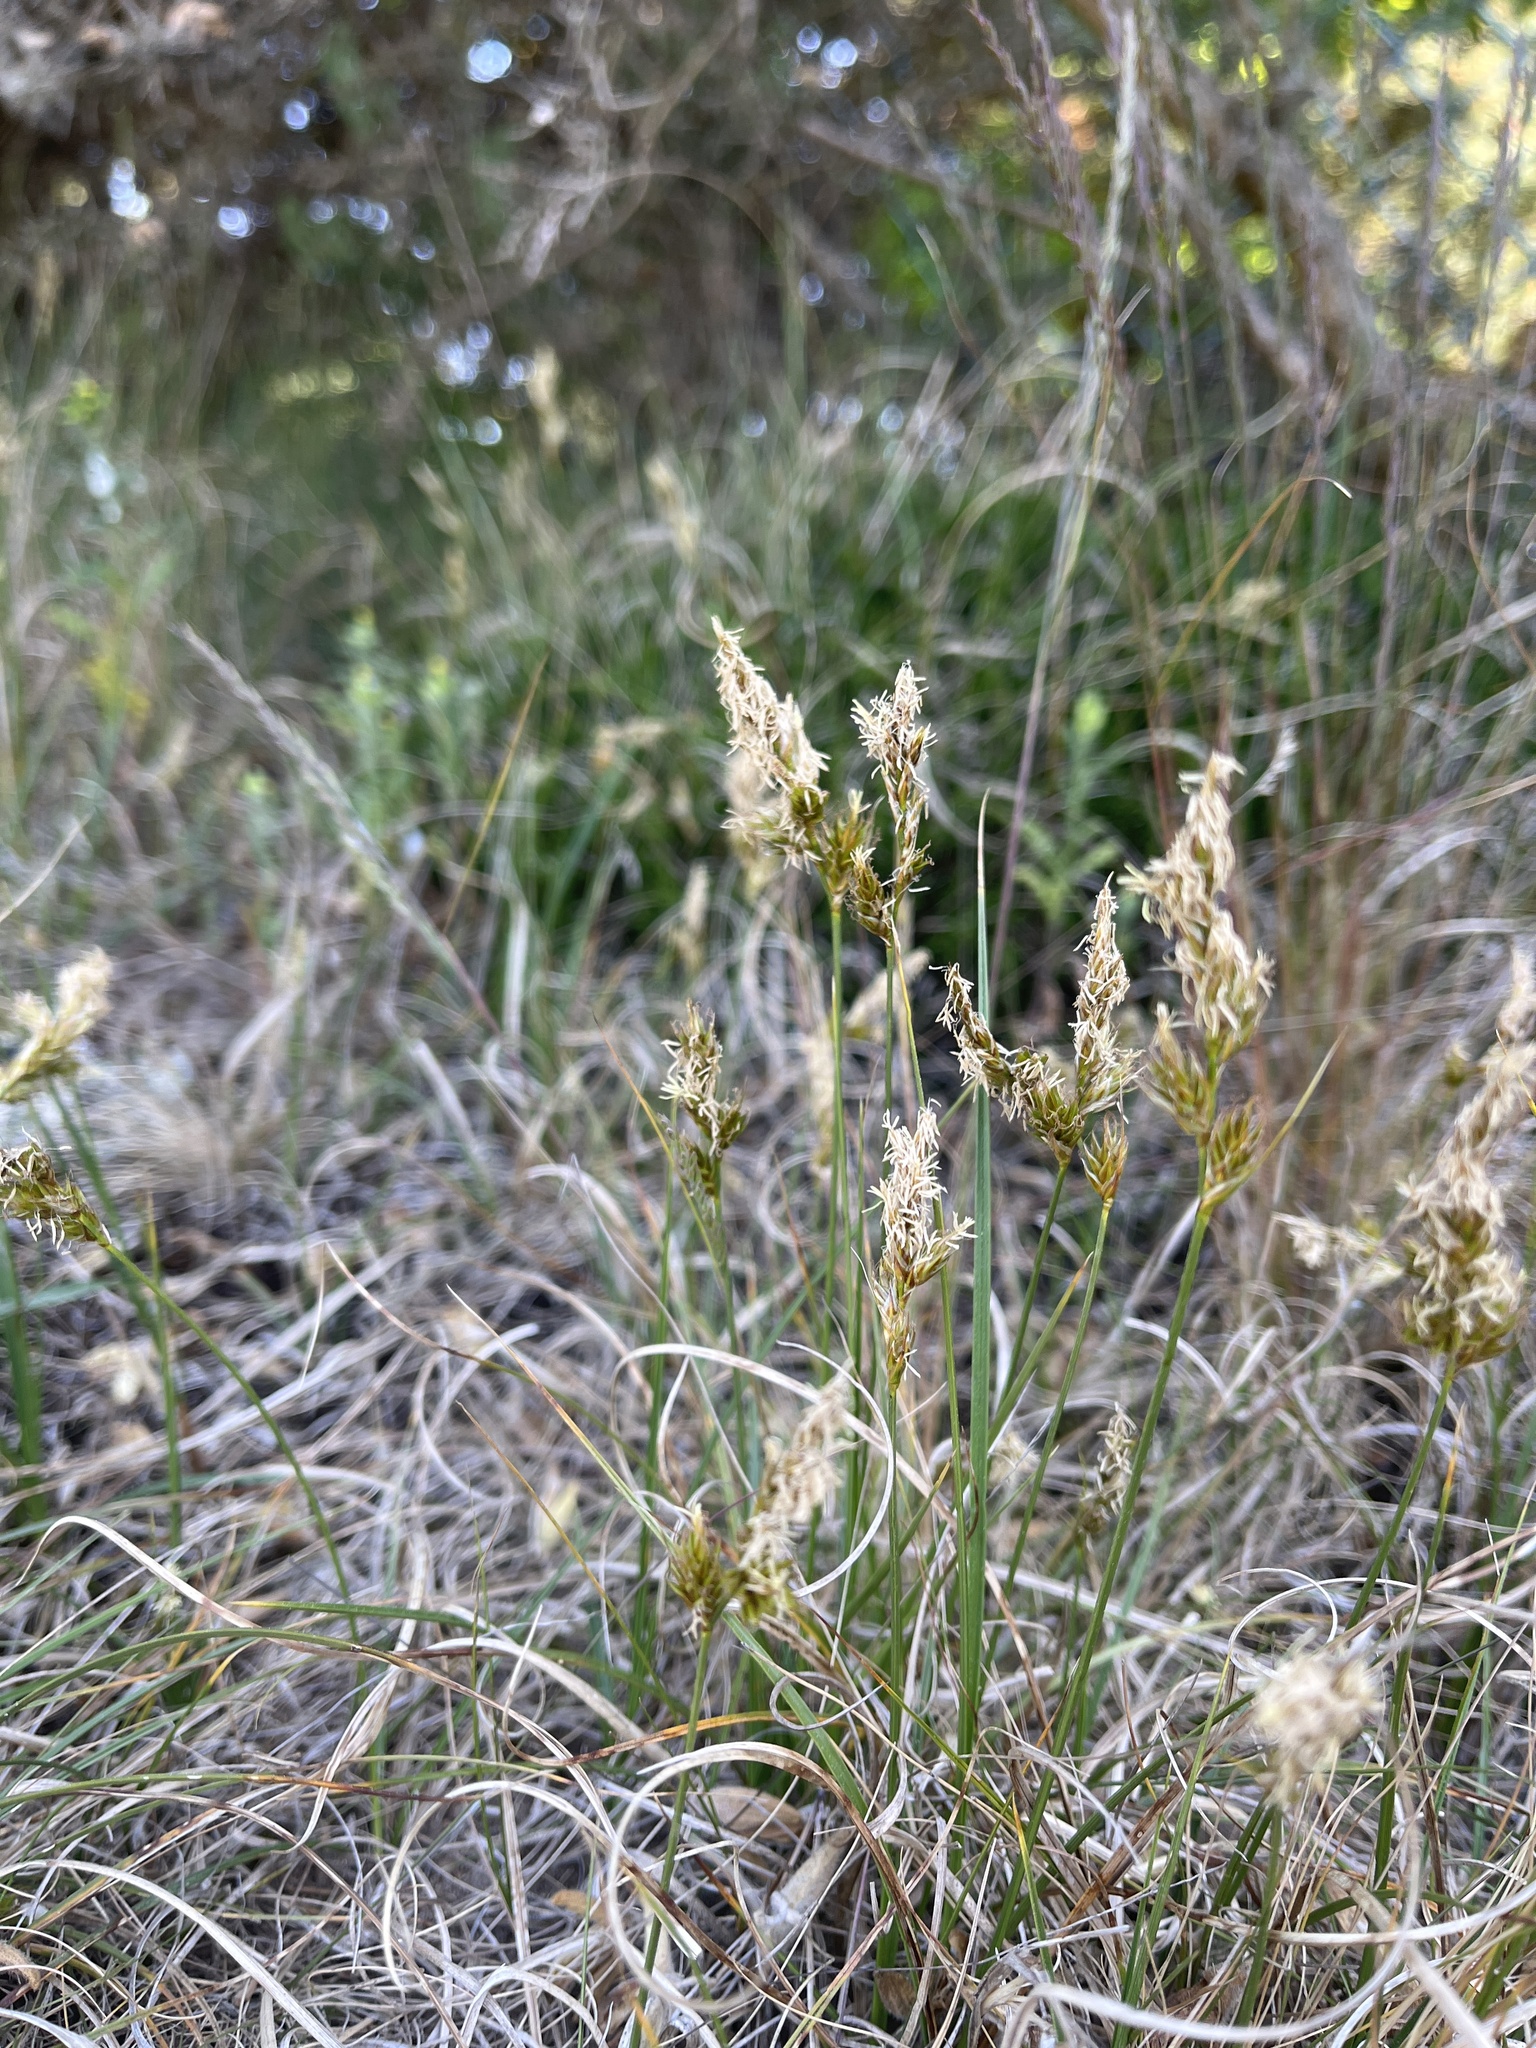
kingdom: Plantae
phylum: Tracheophyta
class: Liliopsida
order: Poales
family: Cyperaceae
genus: Carex
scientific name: Carex arenaria
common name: Sand sedge
